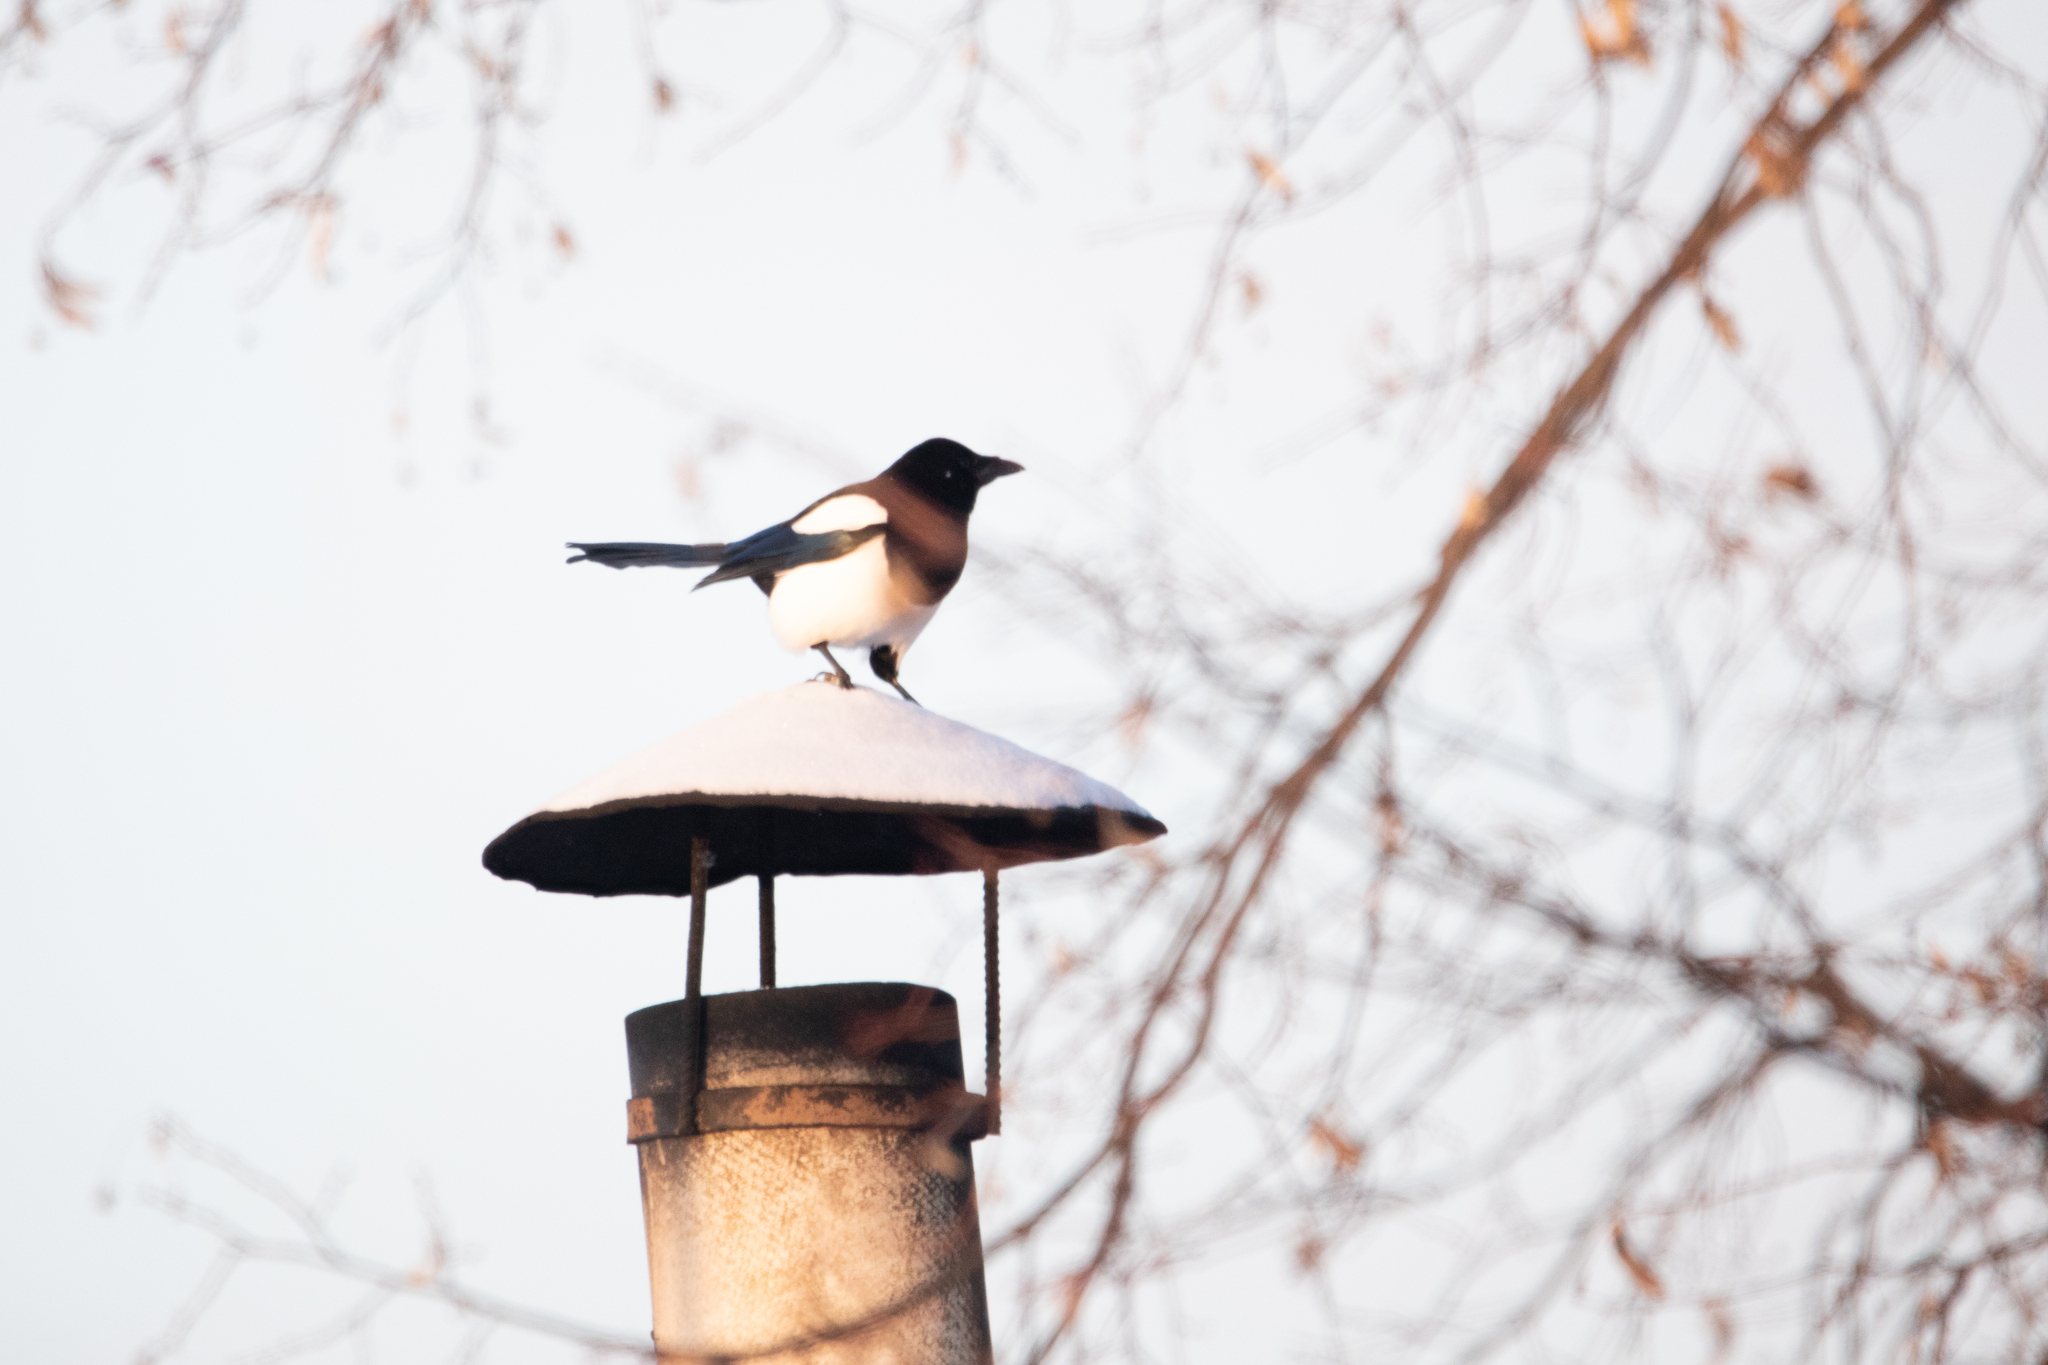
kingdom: Animalia
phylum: Chordata
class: Aves
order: Passeriformes
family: Corvidae
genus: Pica
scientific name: Pica pica
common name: Eurasian magpie
